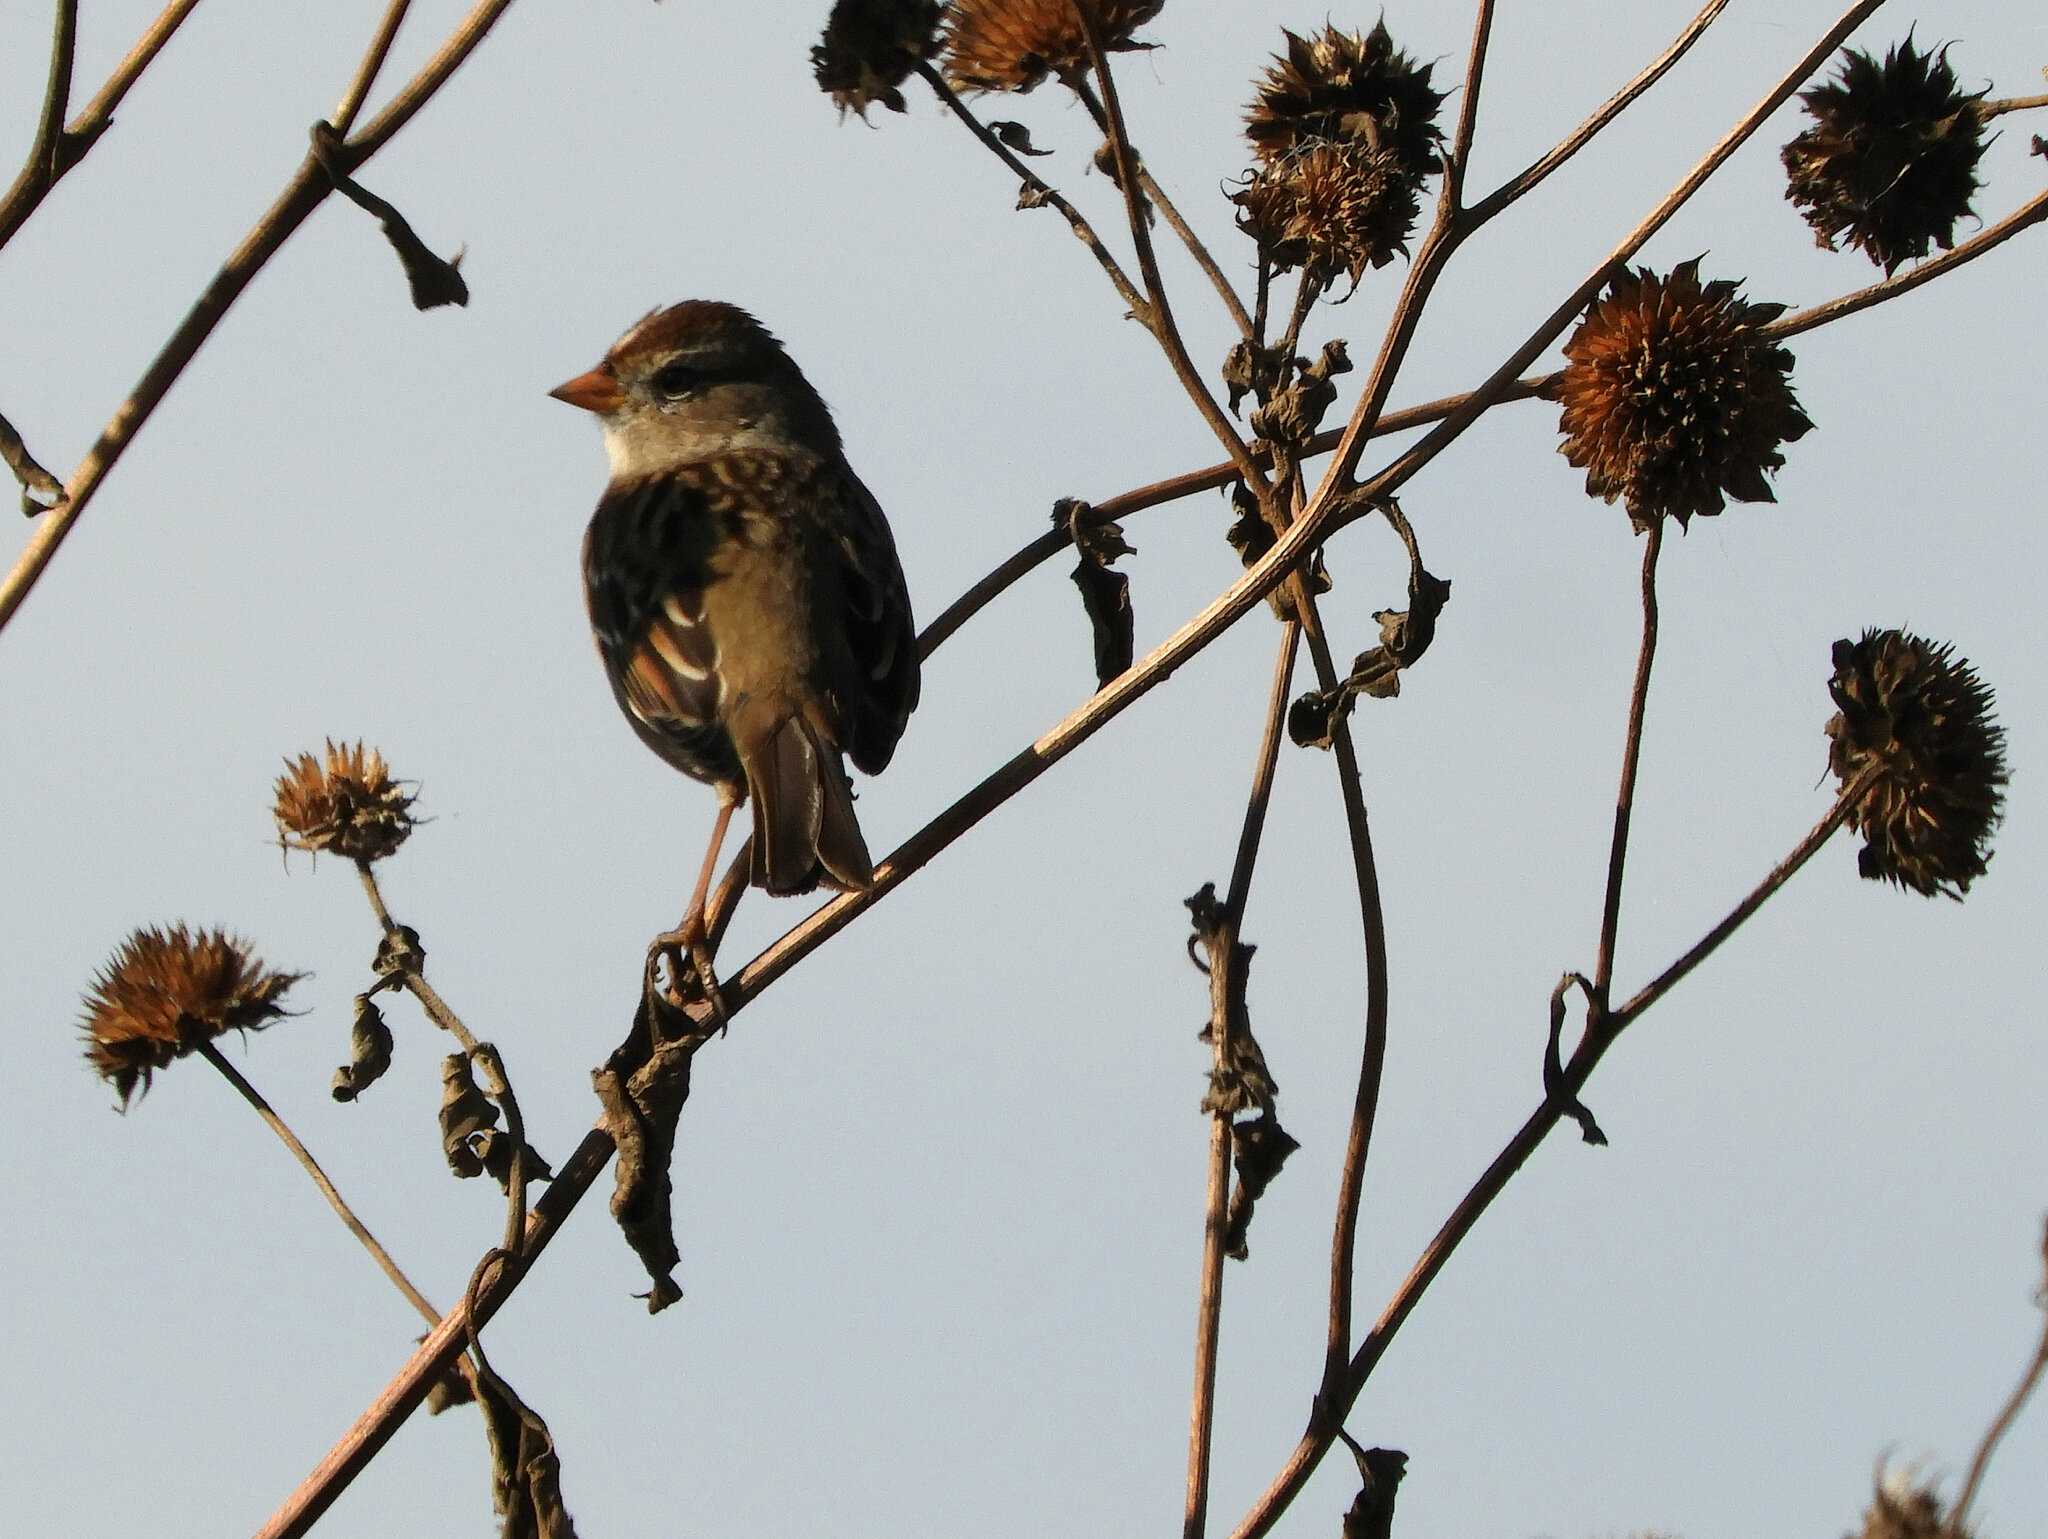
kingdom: Animalia
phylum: Chordata
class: Aves
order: Passeriformes
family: Passerellidae
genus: Zonotrichia
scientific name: Zonotrichia leucophrys
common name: White-crowned sparrow
